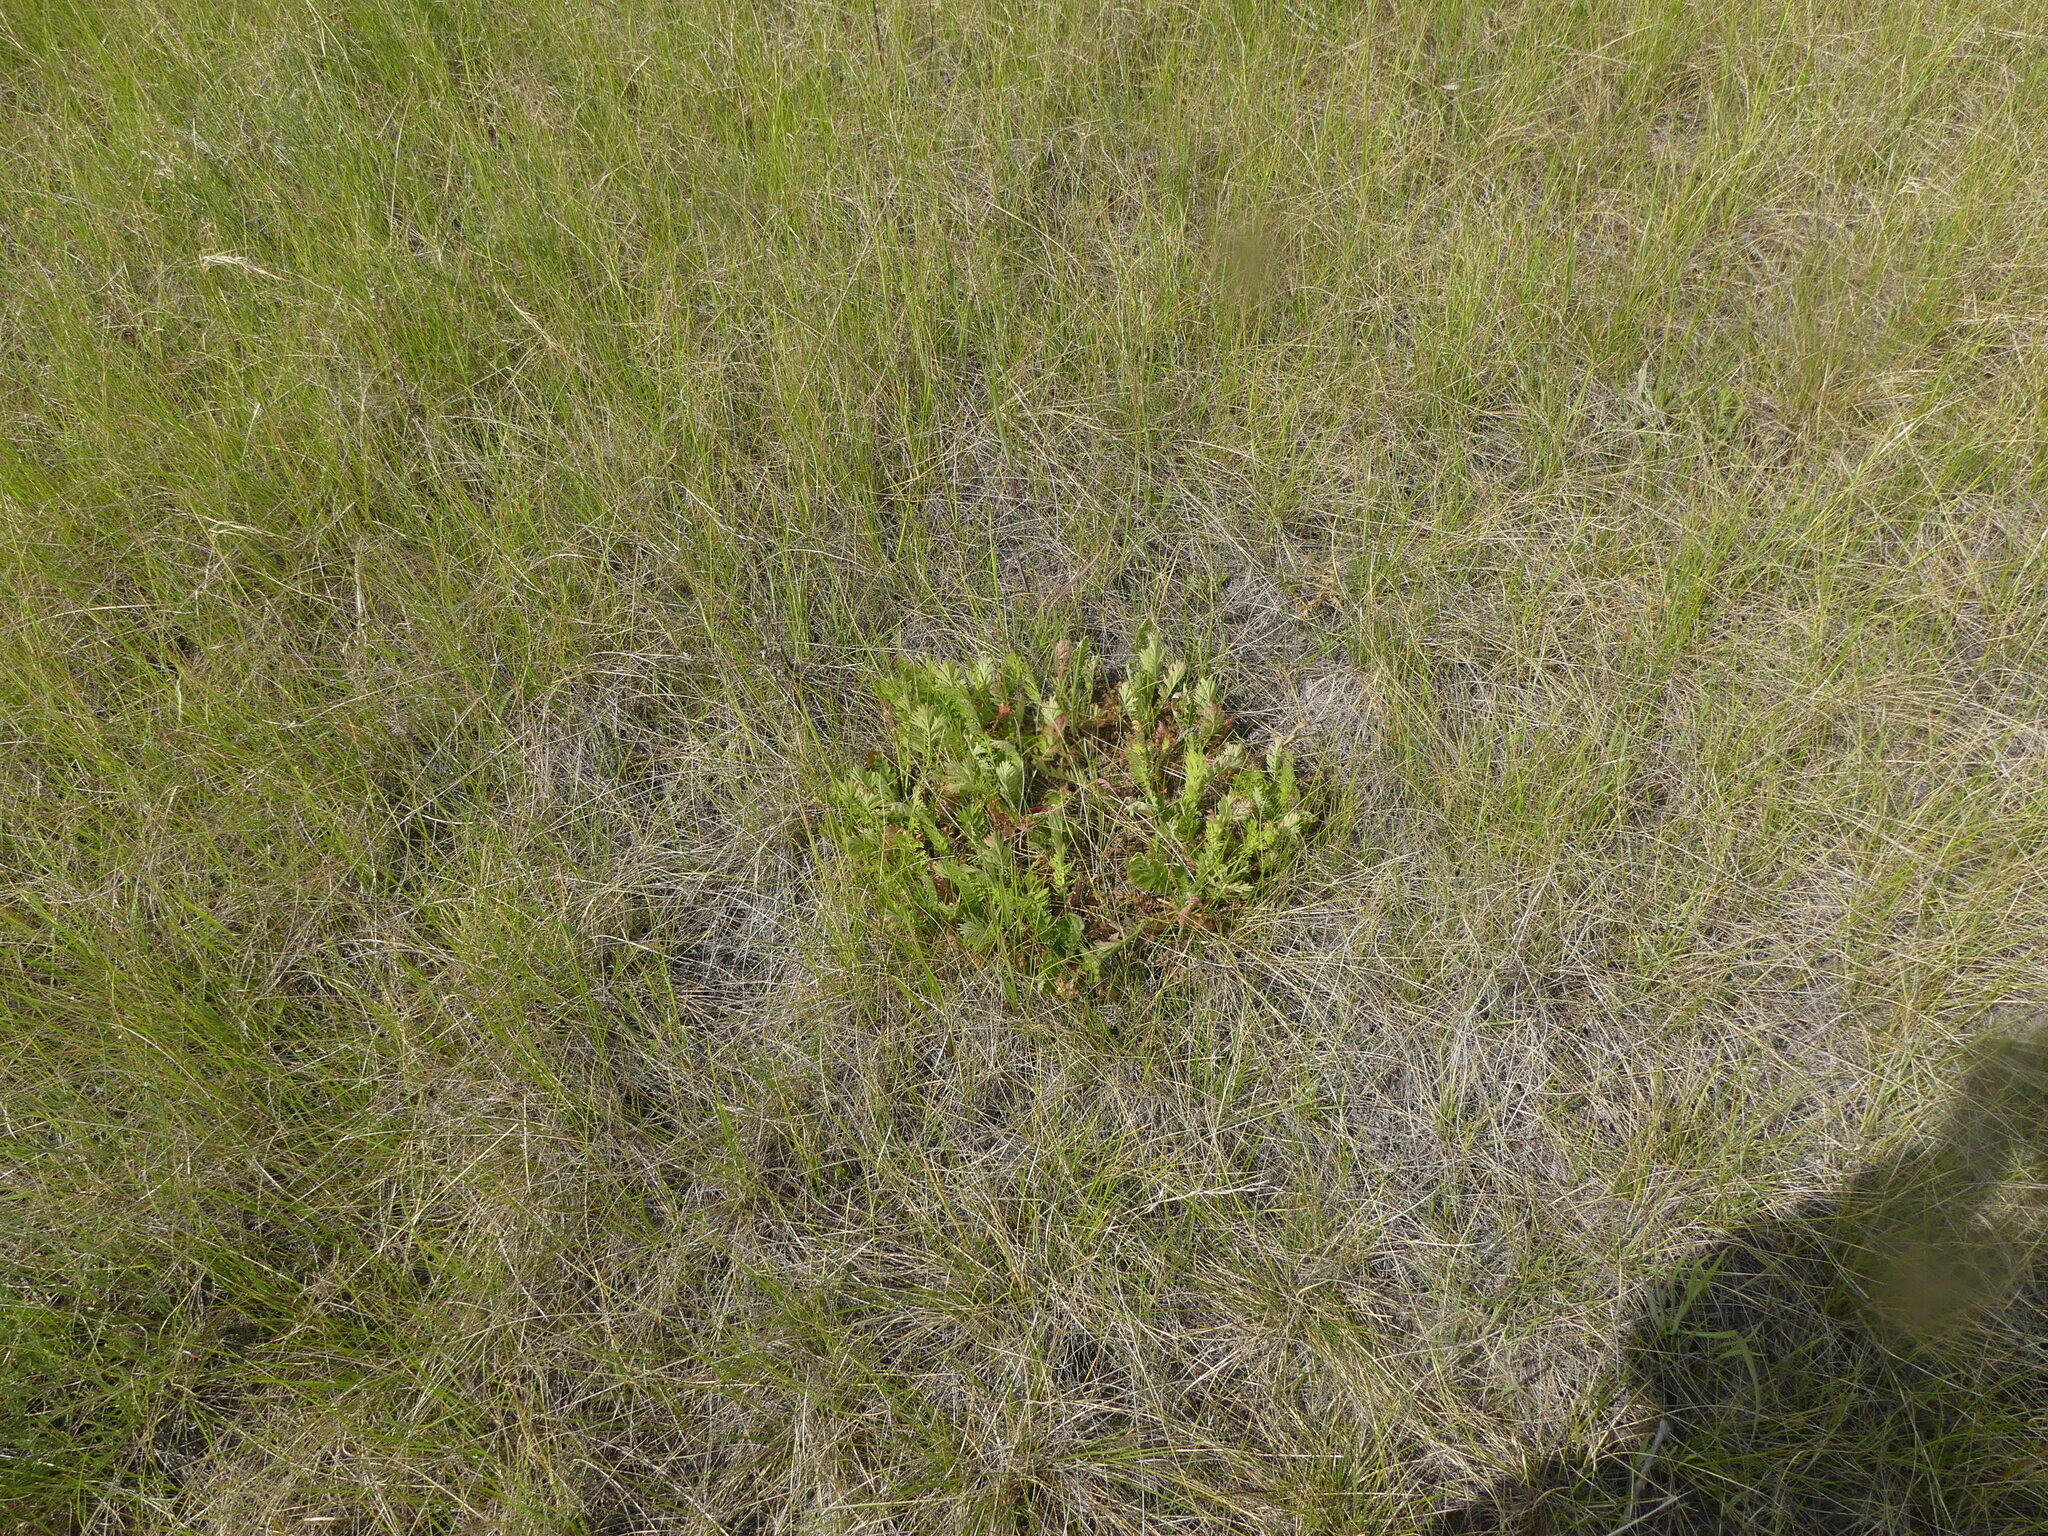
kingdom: Plantae
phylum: Tracheophyta
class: Magnoliopsida
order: Rosales
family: Rosaceae
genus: Geum
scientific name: Geum triflorum
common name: Old man's whiskers
